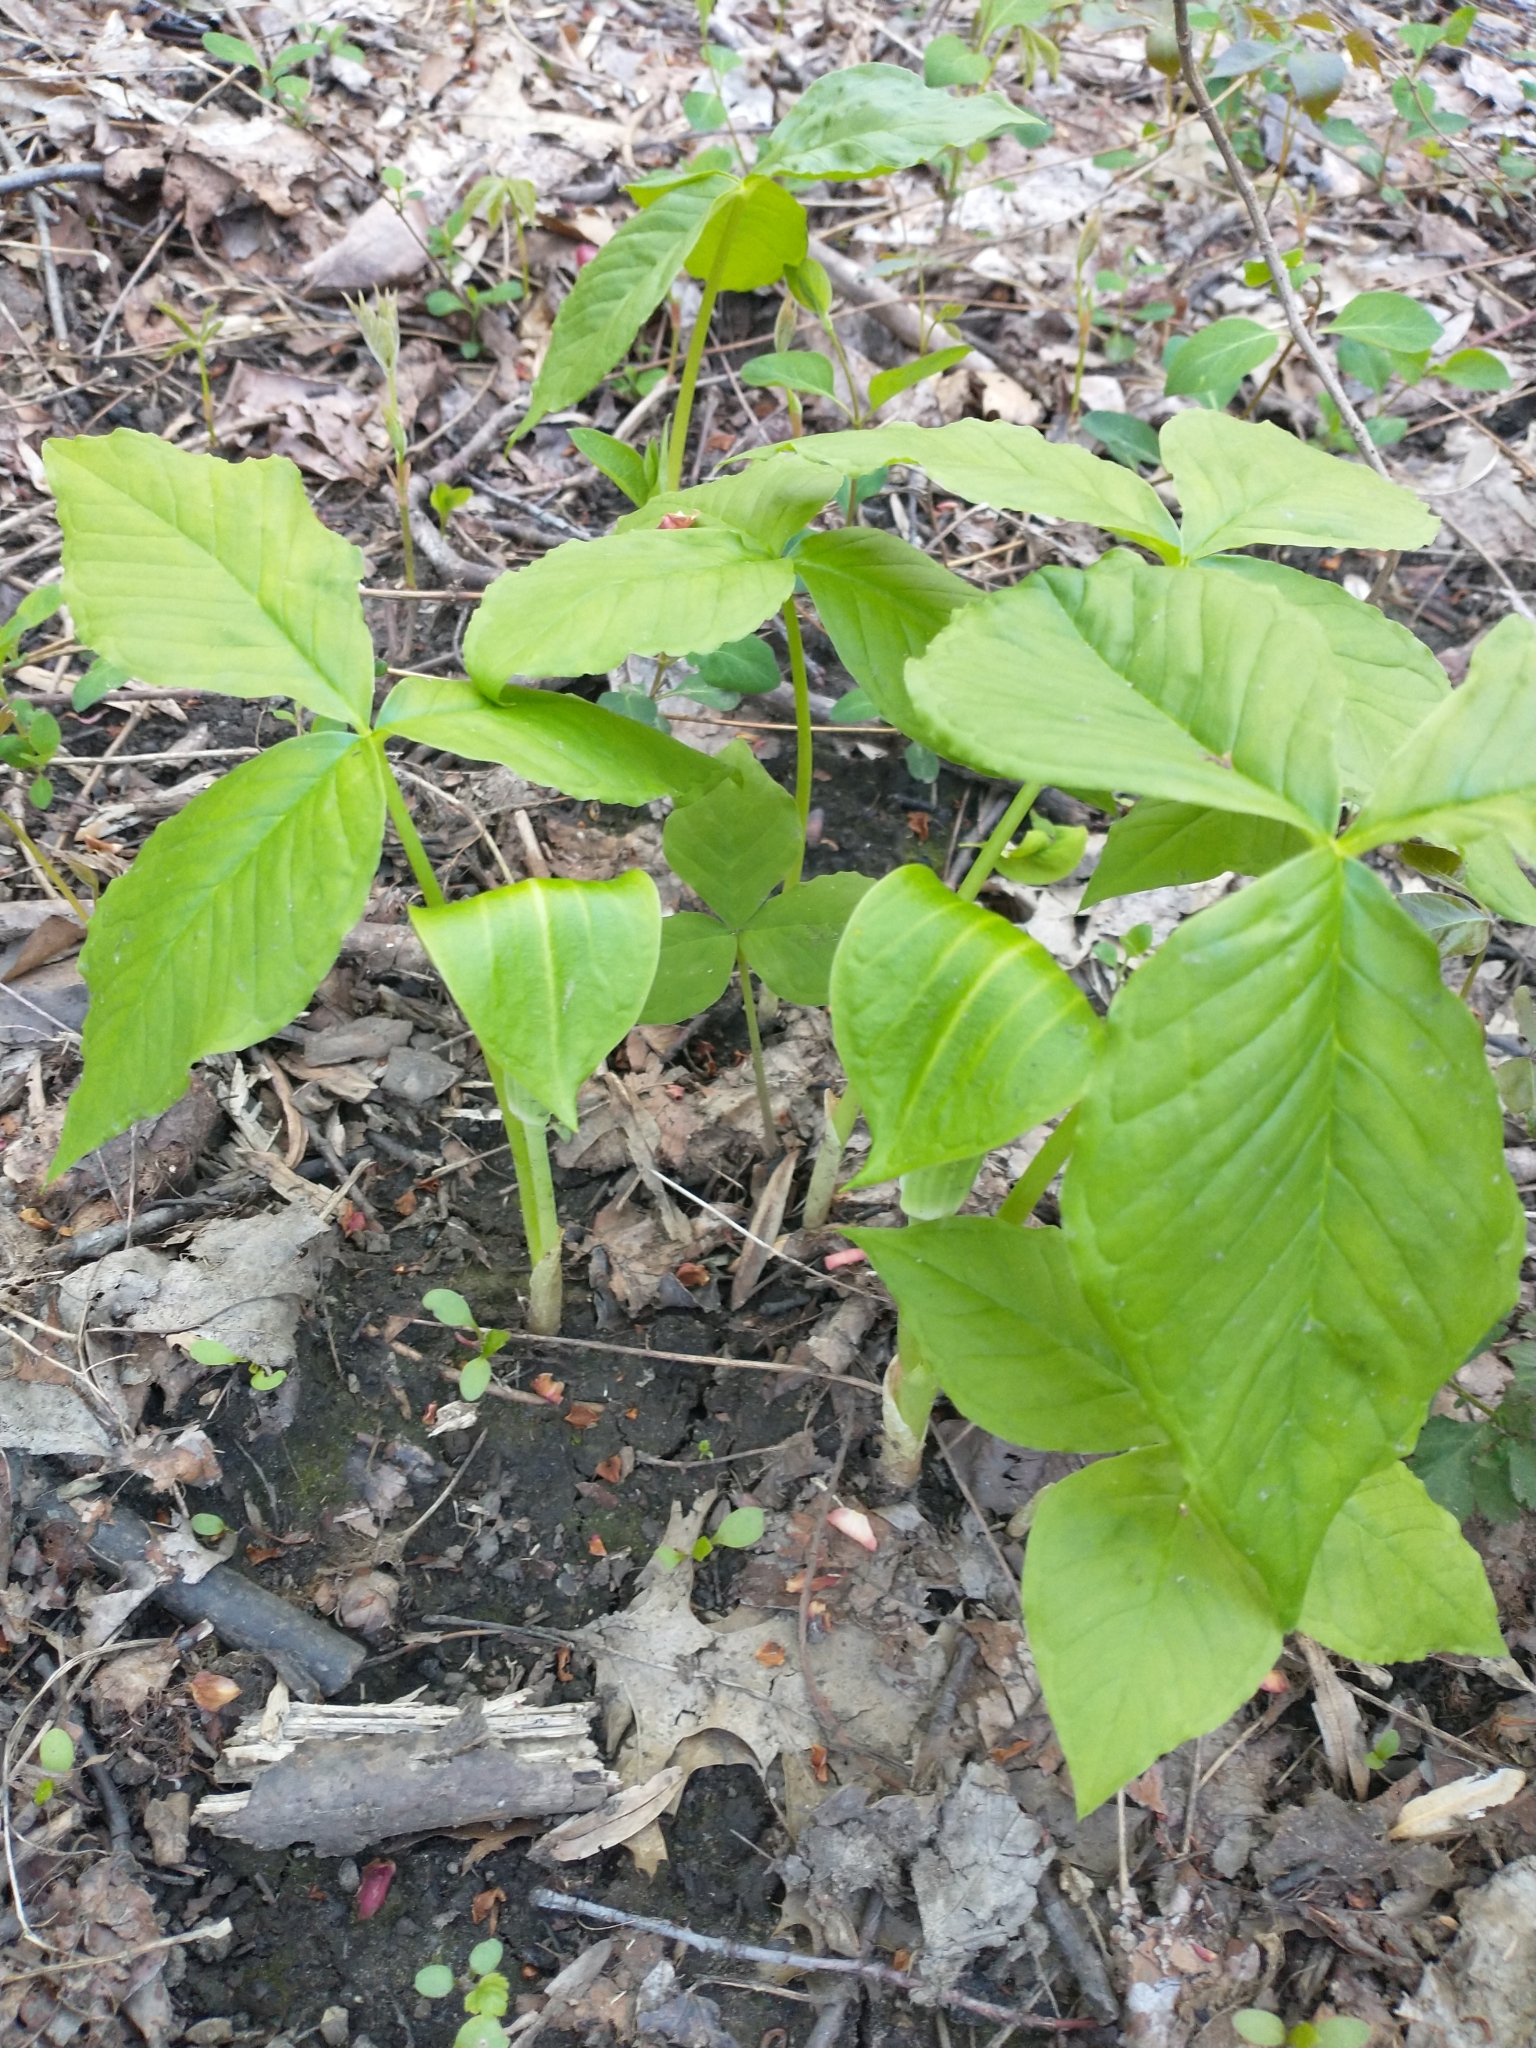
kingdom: Plantae
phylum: Tracheophyta
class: Liliopsida
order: Alismatales
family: Araceae
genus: Arisaema
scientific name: Arisaema triphyllum
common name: Jack-in-the-pulpit
